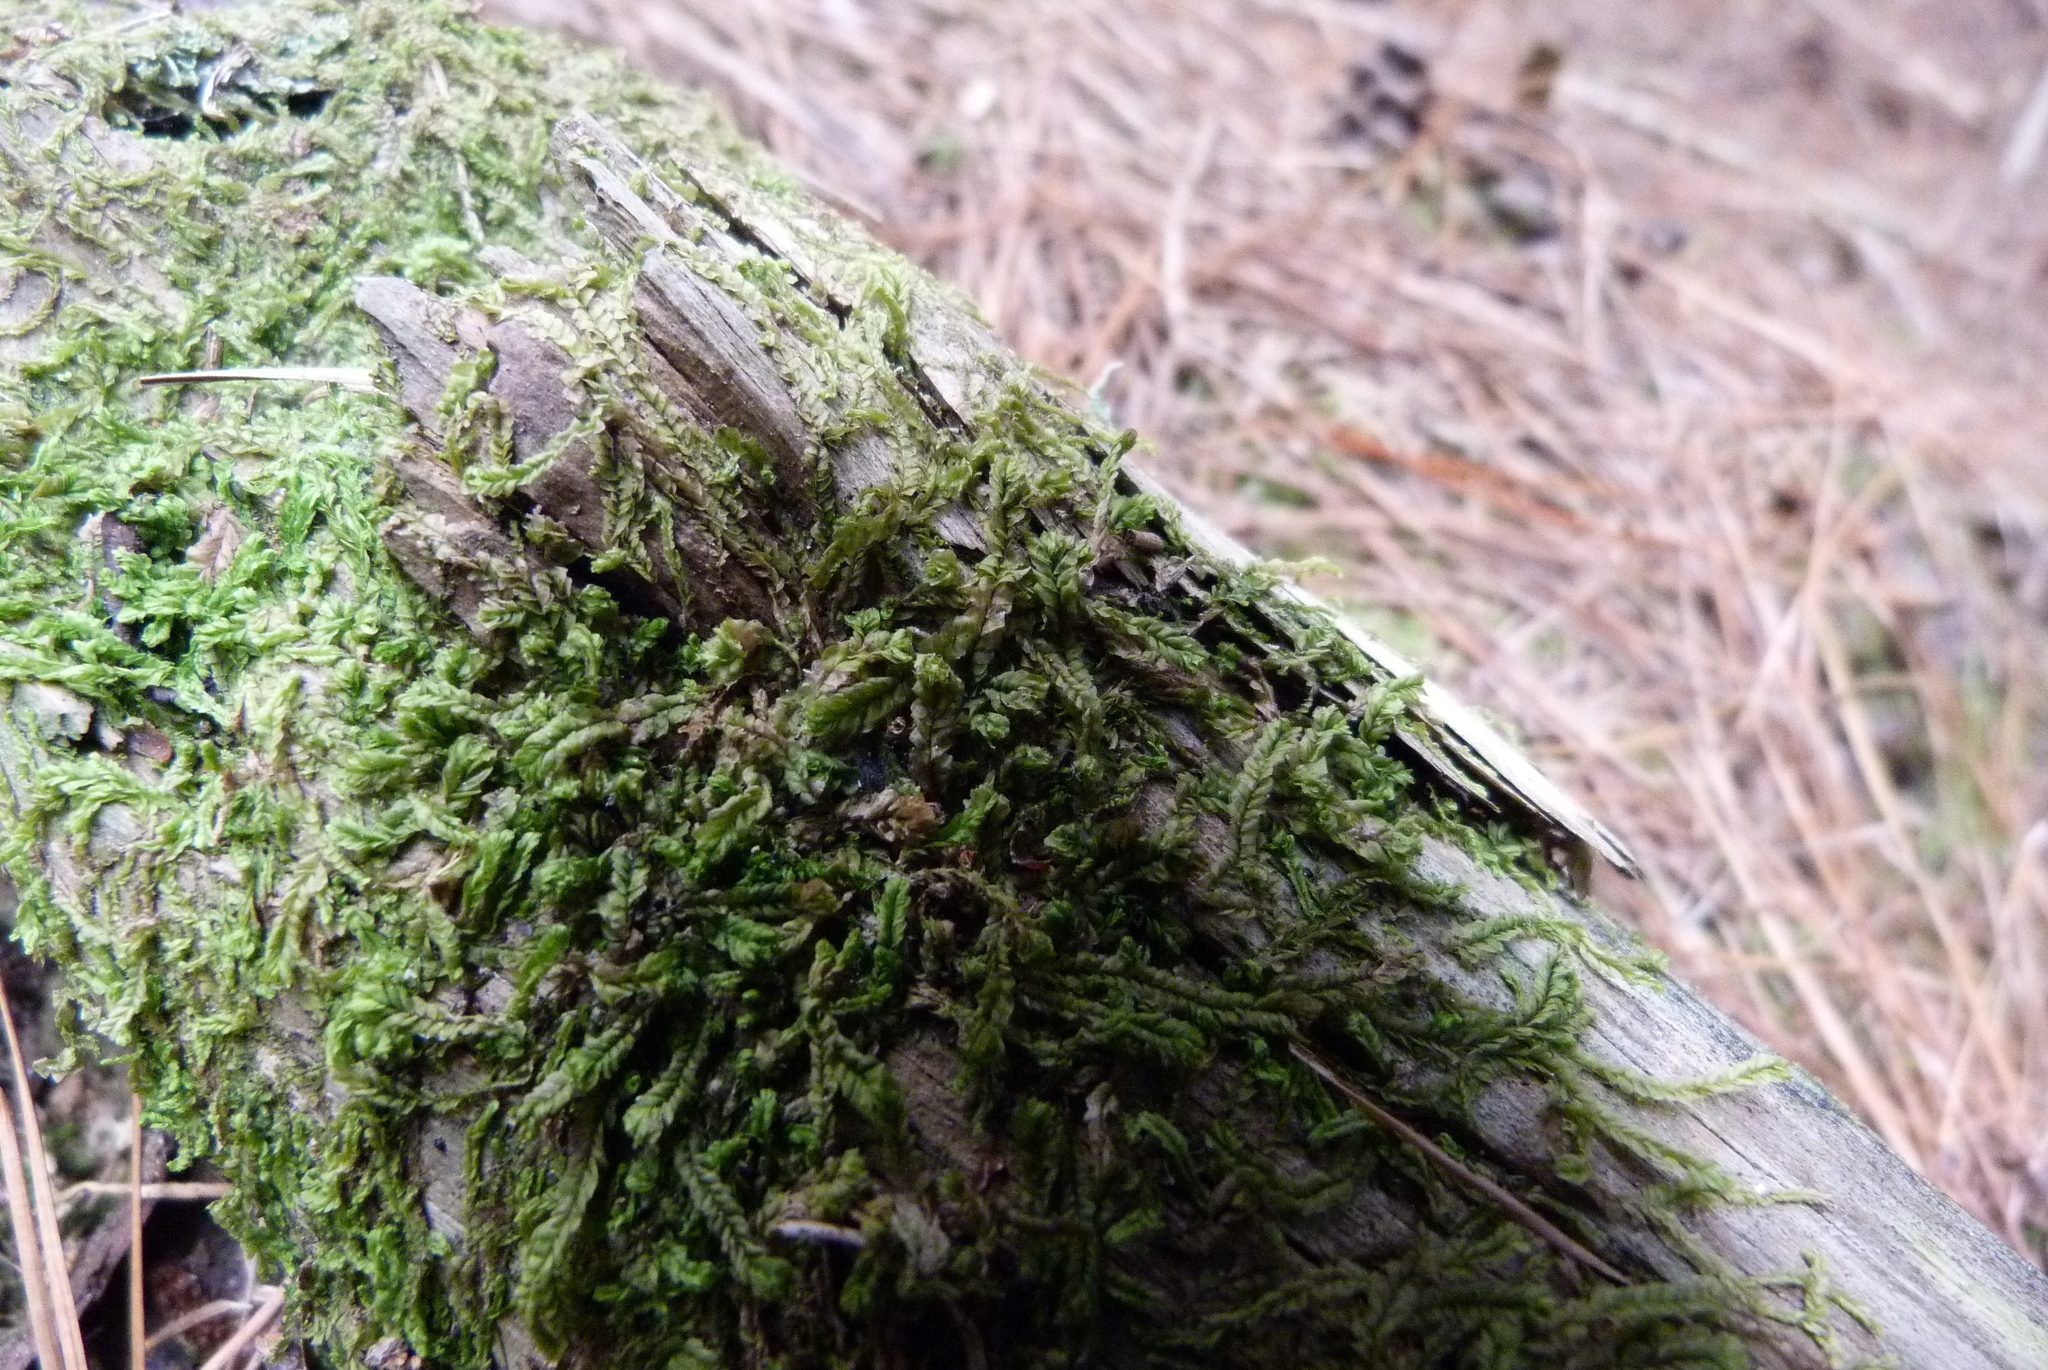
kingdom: Plantae
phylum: Marchantiophyta
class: Jungermanniopsida
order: Jungermanniales
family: Lophocoleaceae
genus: Lophocolea
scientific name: Lophocolea semiteres
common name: Southern crestwort
